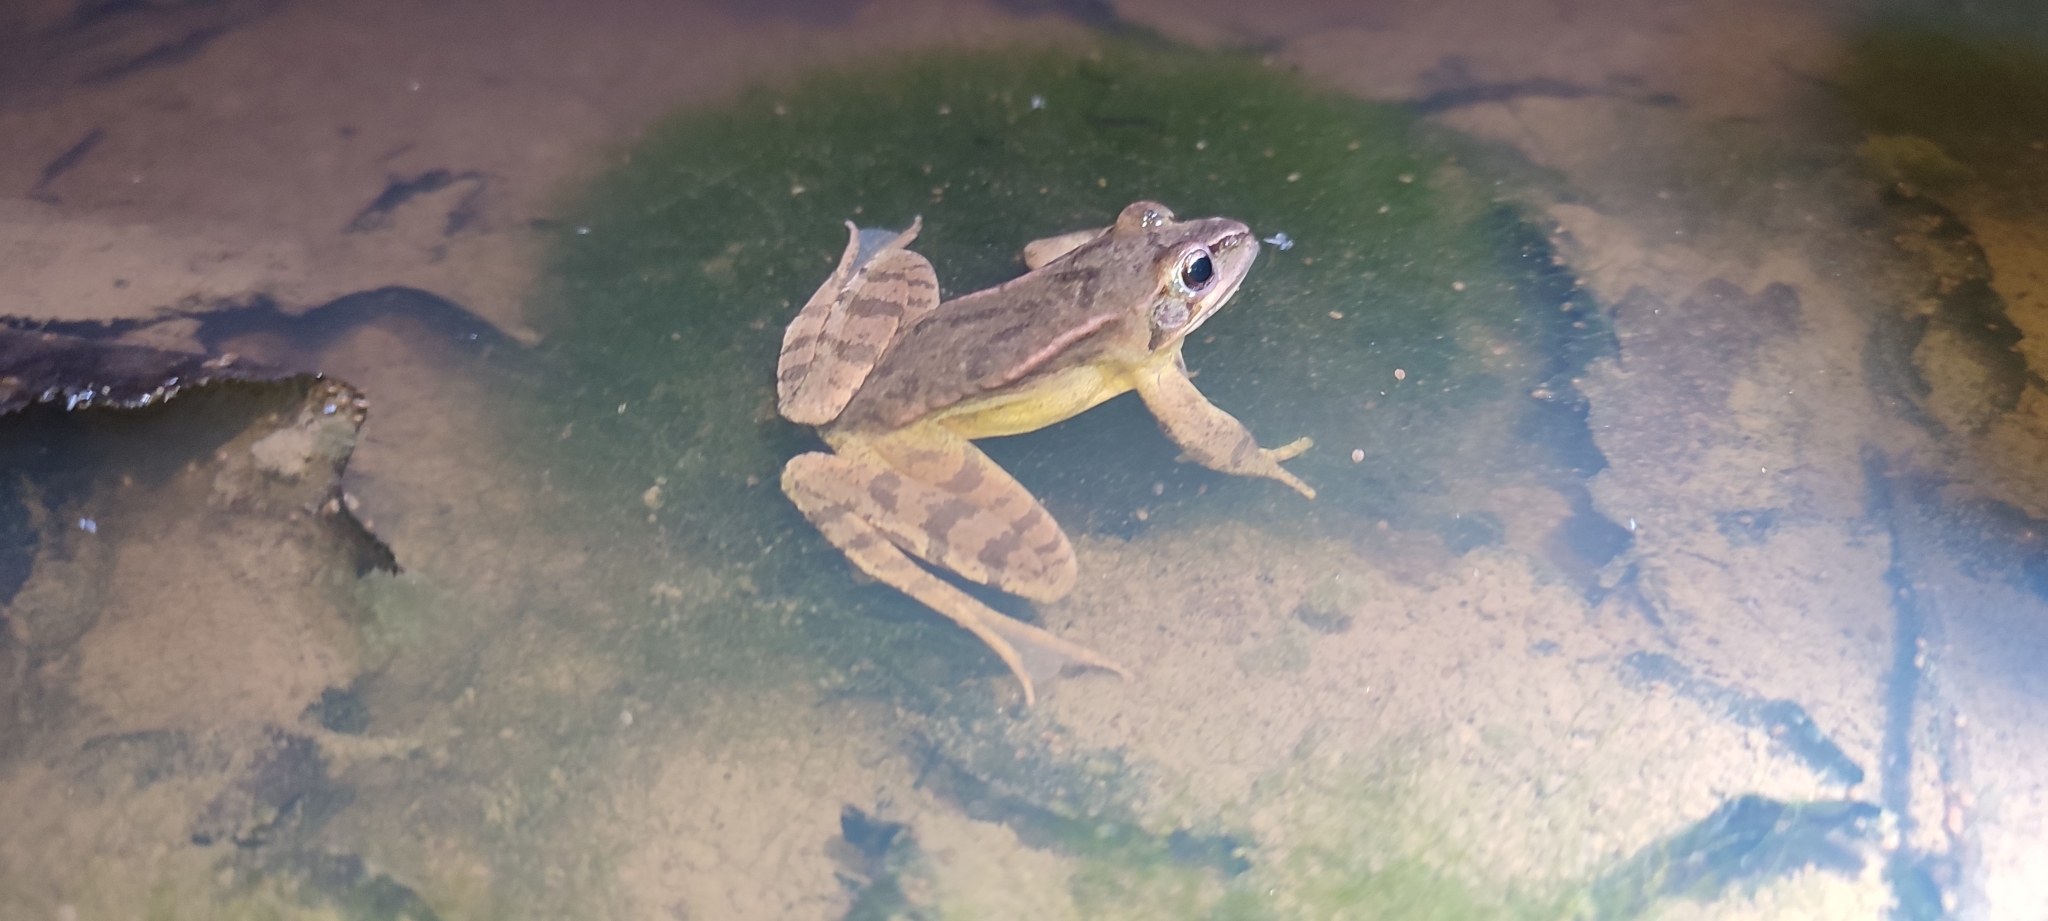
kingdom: Animalia
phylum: Chordata
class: Amphibia
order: Anura
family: Ranidae
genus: Rana
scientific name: Rana dalmatina
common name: Agile frog
